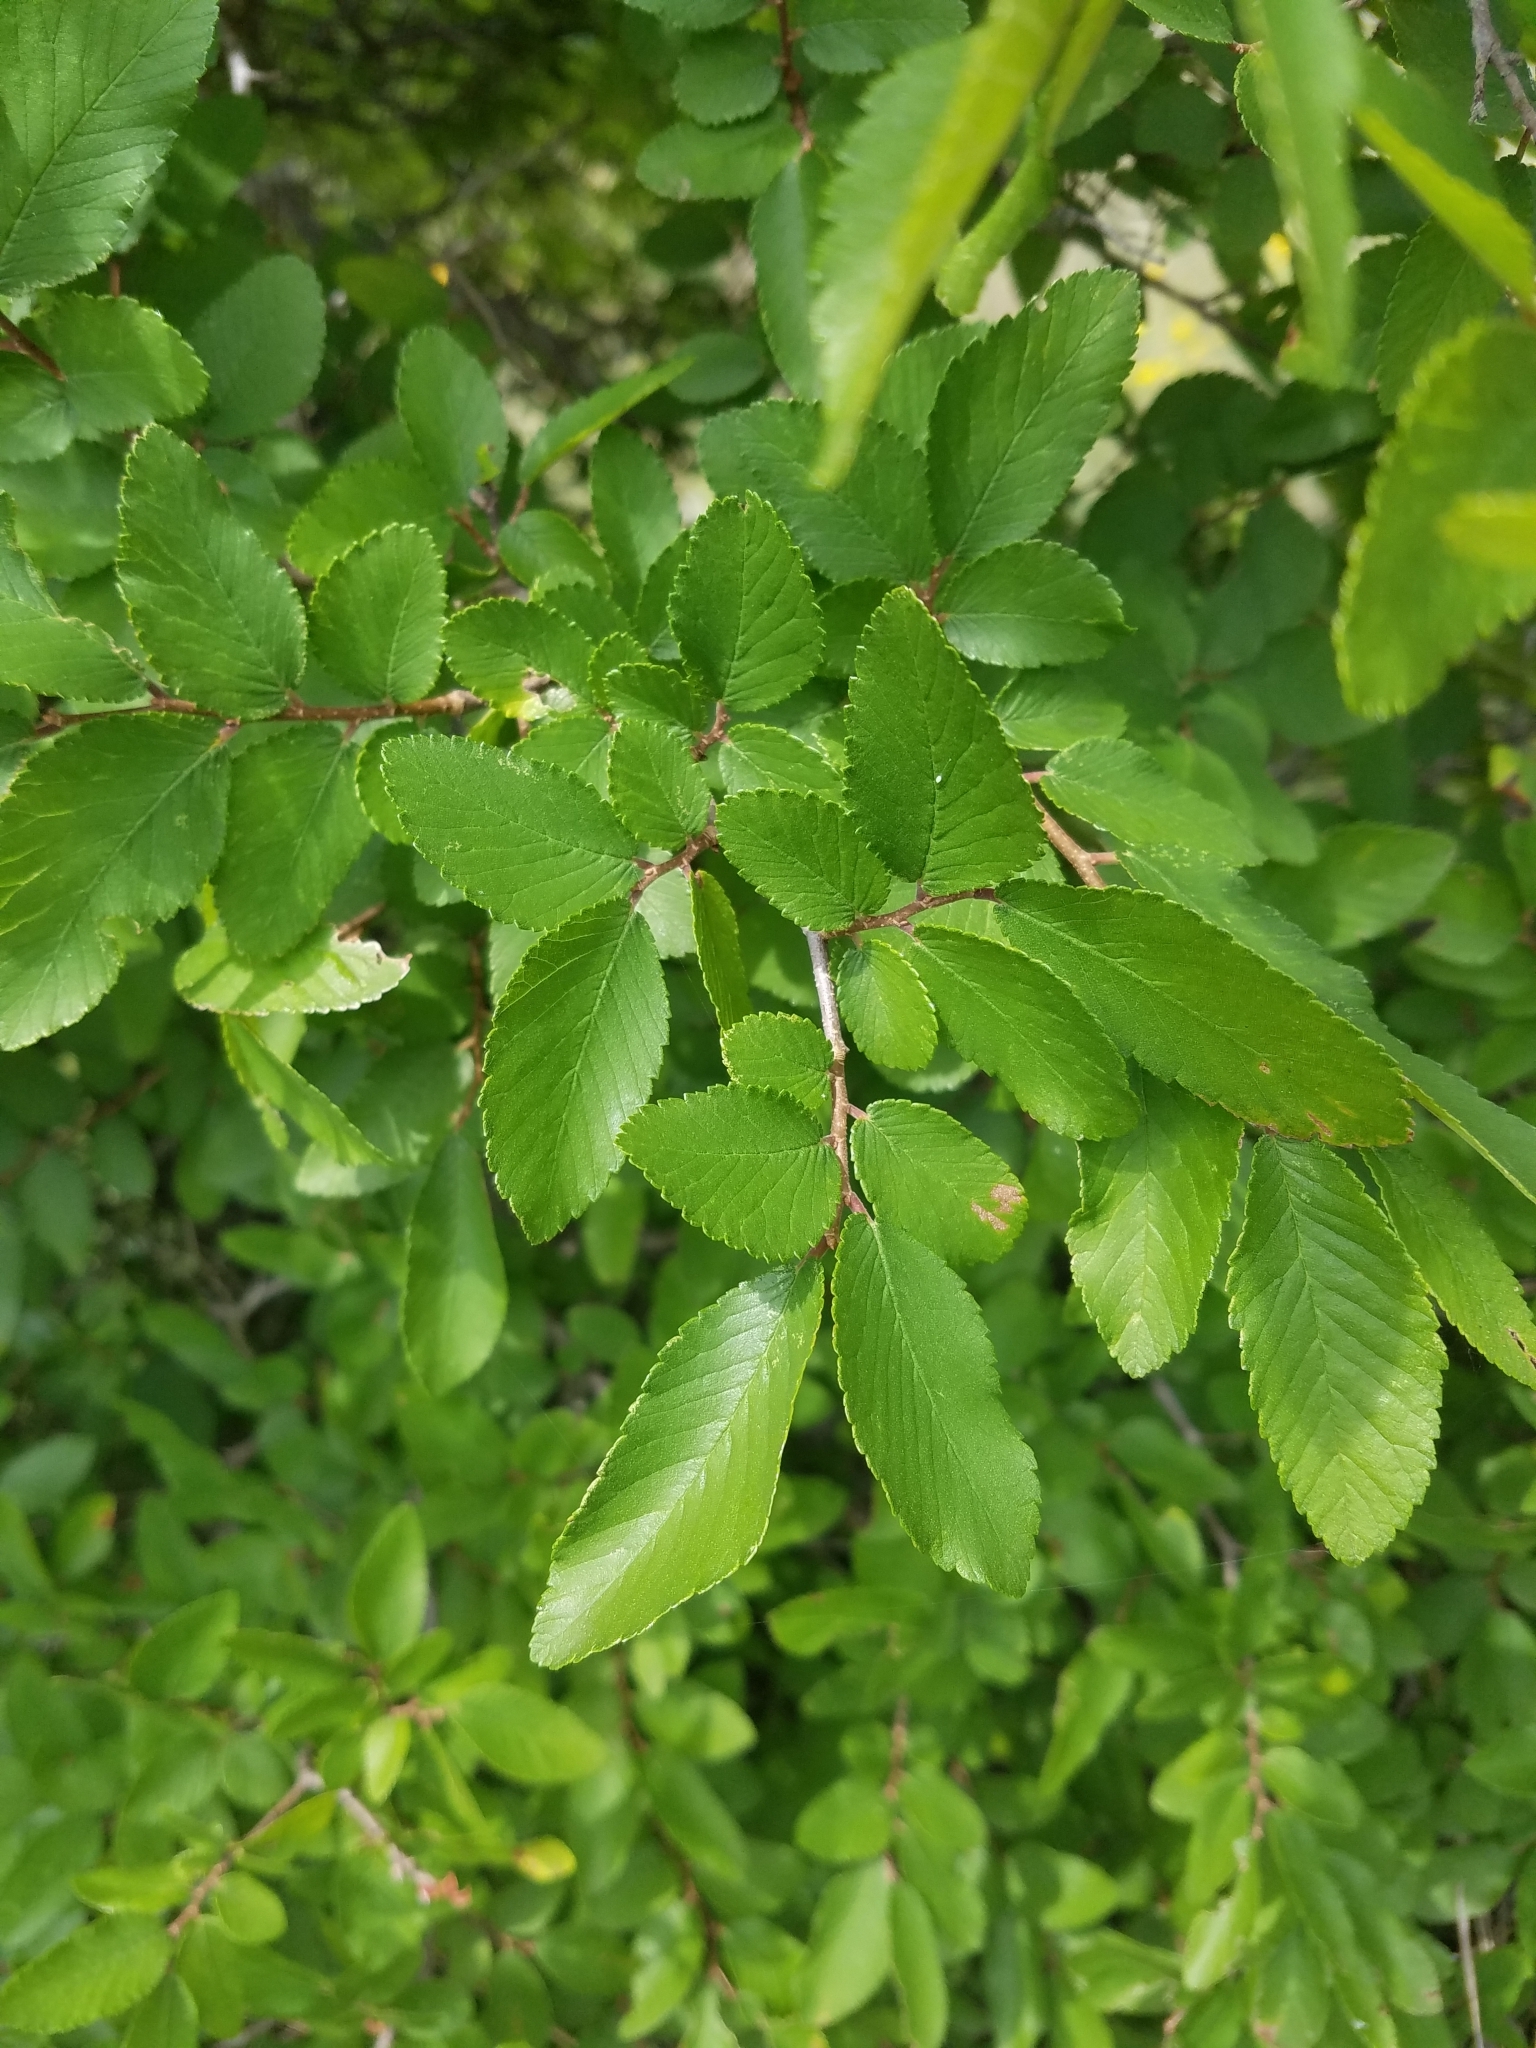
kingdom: Plantae
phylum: Tracheophyta
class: Magnoliopsida
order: Rosales
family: Ulmaceae
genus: Ulmus
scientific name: Ulmus crassifolia
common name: Basket elm
